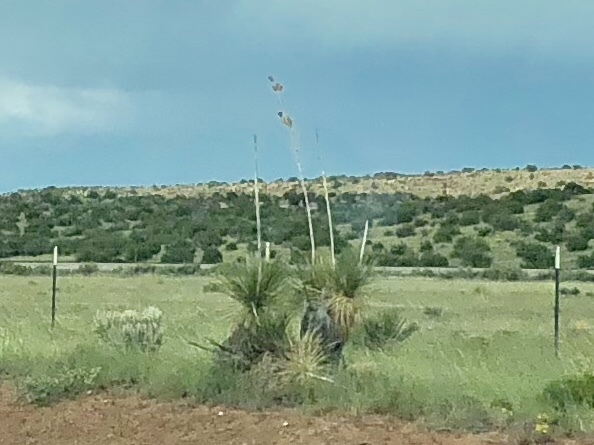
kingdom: Plantae
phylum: Tracheophyta
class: Liliopsida
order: Asparagales
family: Asparagaceae
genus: Yucca
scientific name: Yucca elata
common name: Palmella
